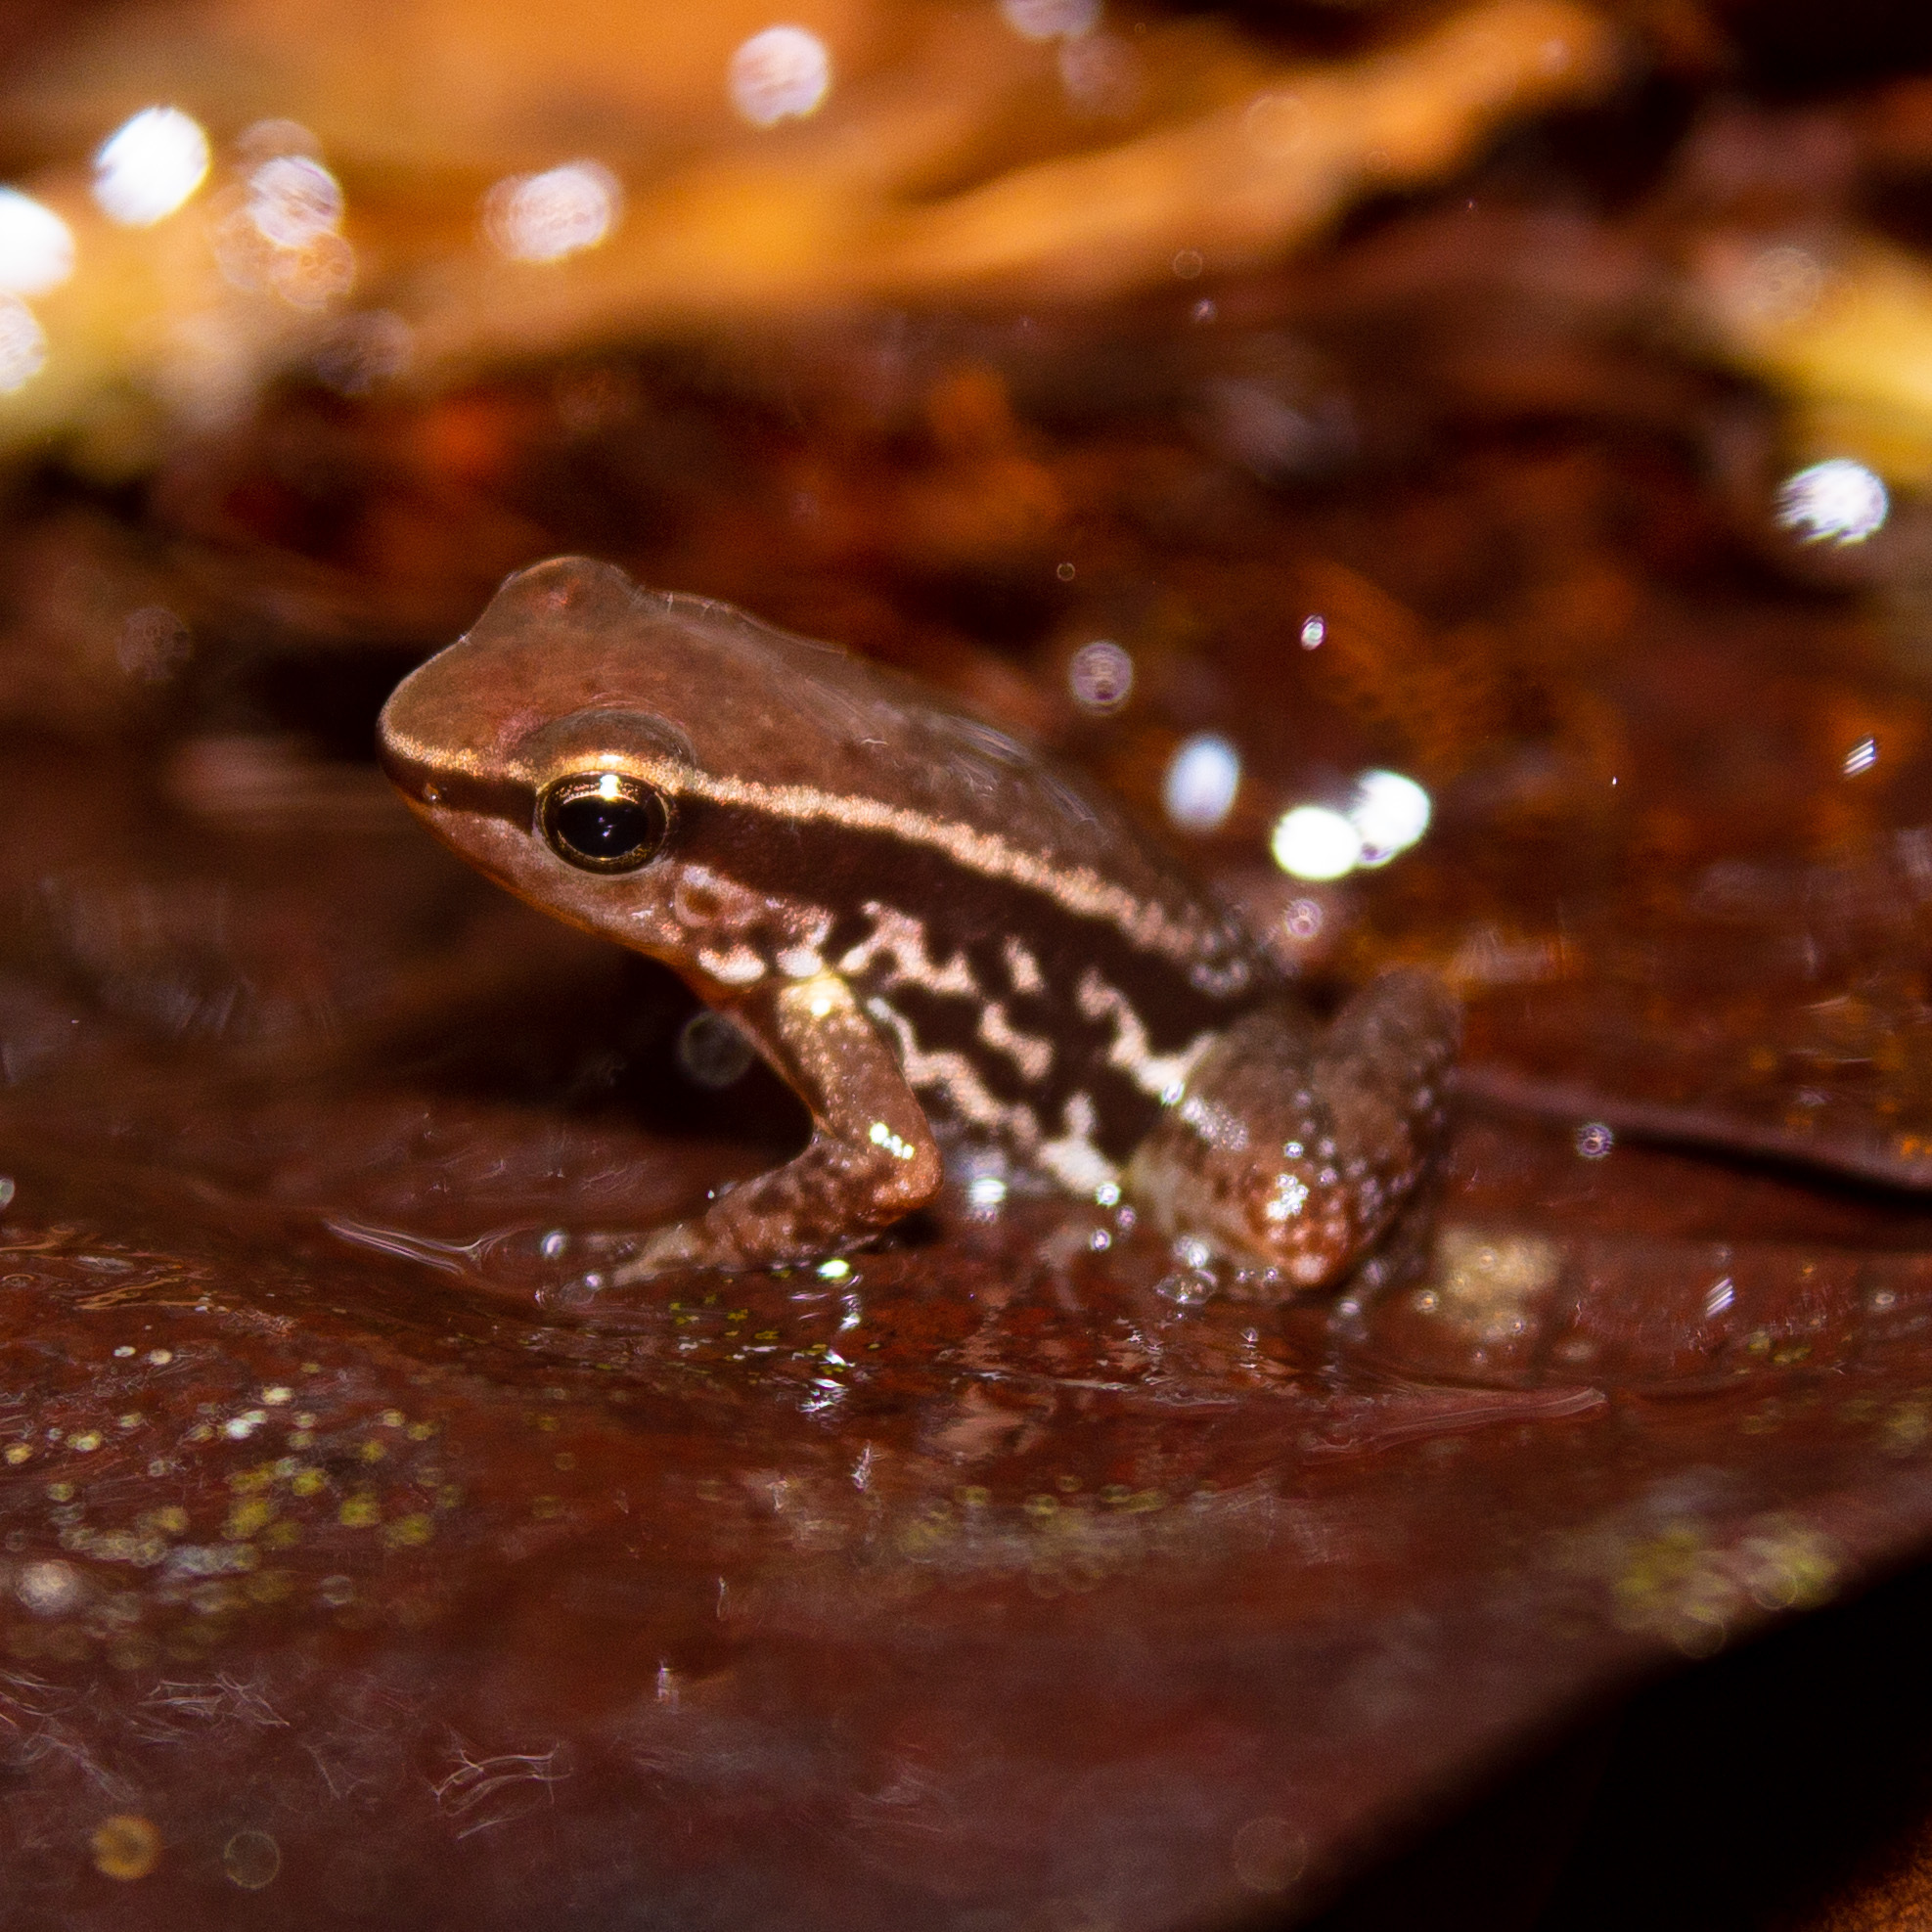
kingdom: Animalia
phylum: Chordata
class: Amphibia
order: Anura
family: Dendrobatidae
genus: Colostethus
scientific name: Colostethus ruthveni
